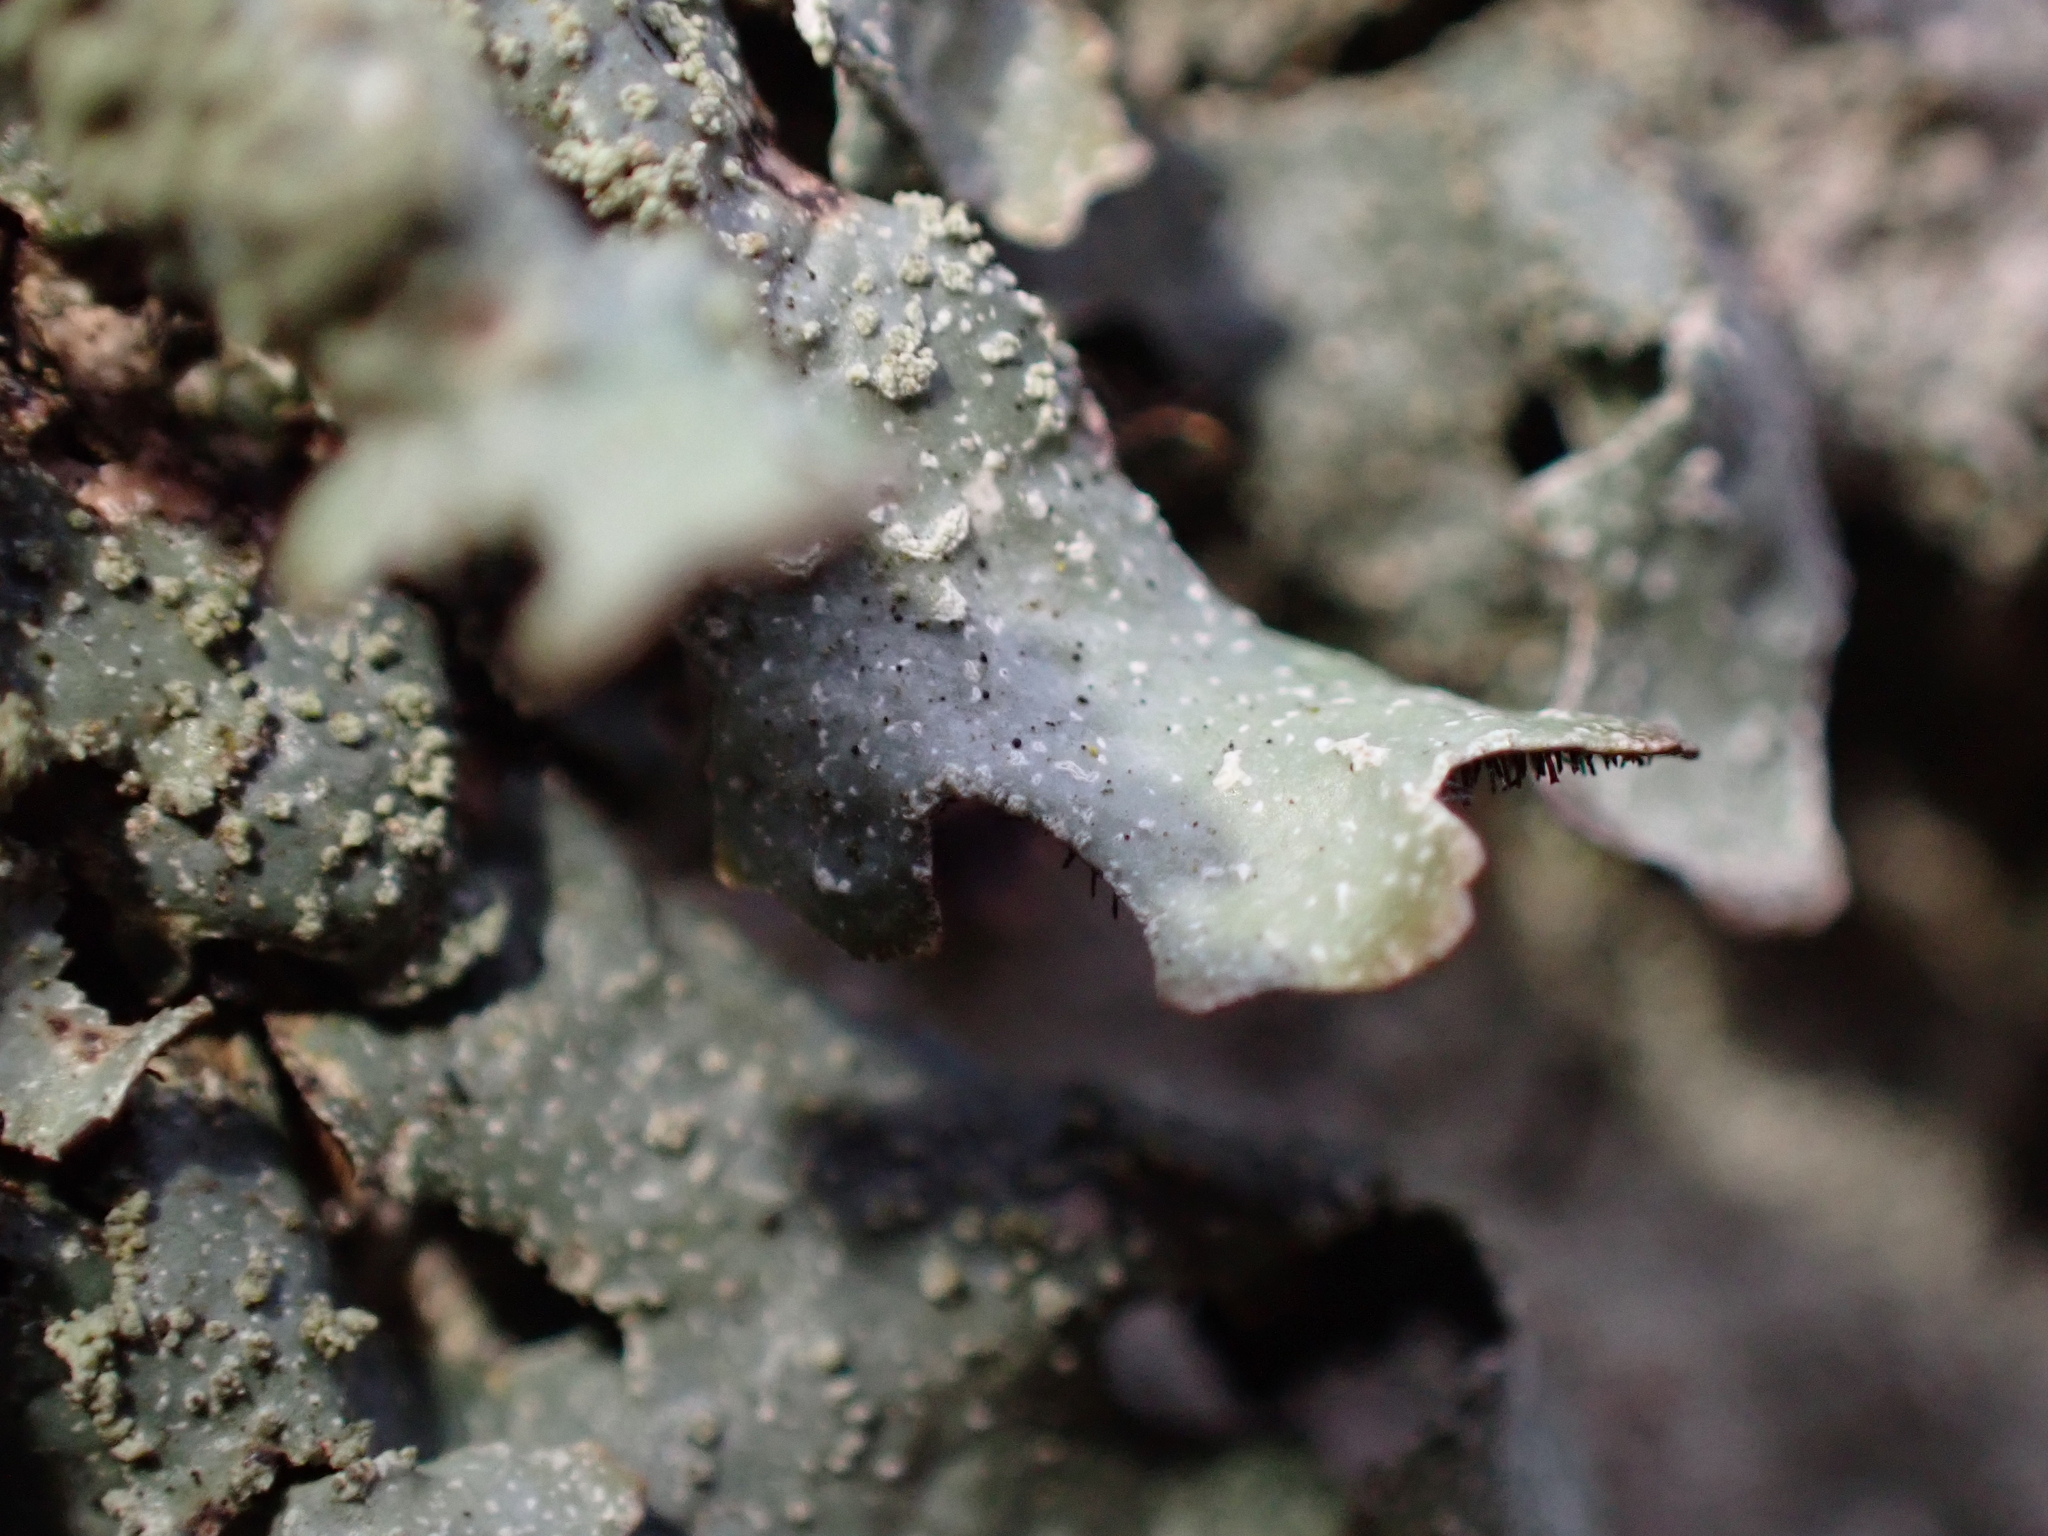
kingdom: Fungi
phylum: Ascomycota
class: Lecanoromycetes
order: Lecanorales
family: Parmeliaceae
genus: Parmelia
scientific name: Parmelia submontana
